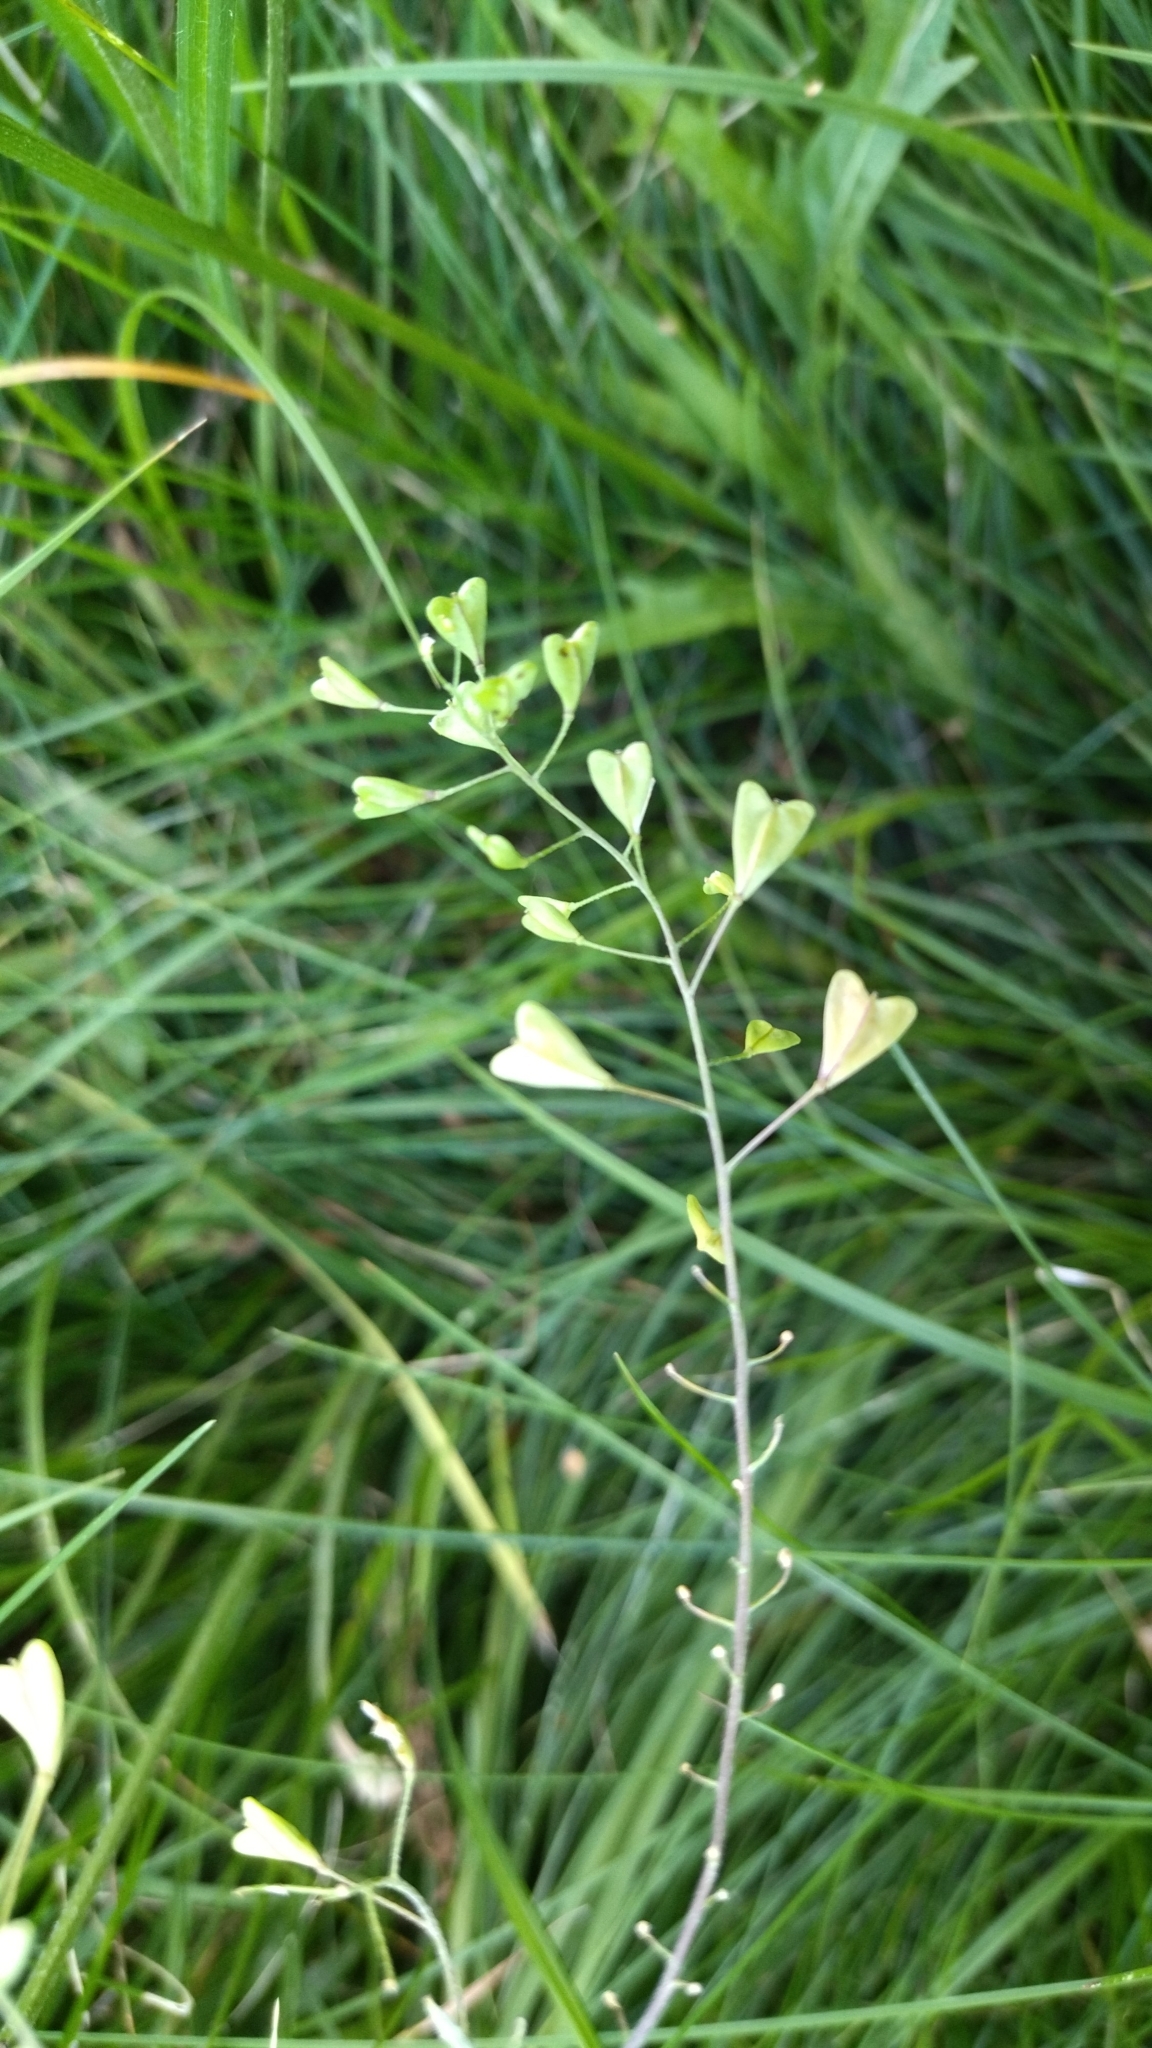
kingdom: Plantae
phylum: Tracheophyta
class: Magnoliopsida
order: Brassicales
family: Brassicaceae
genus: Capsella
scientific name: Capsella bursa-pastoris
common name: Shepherd's purse
